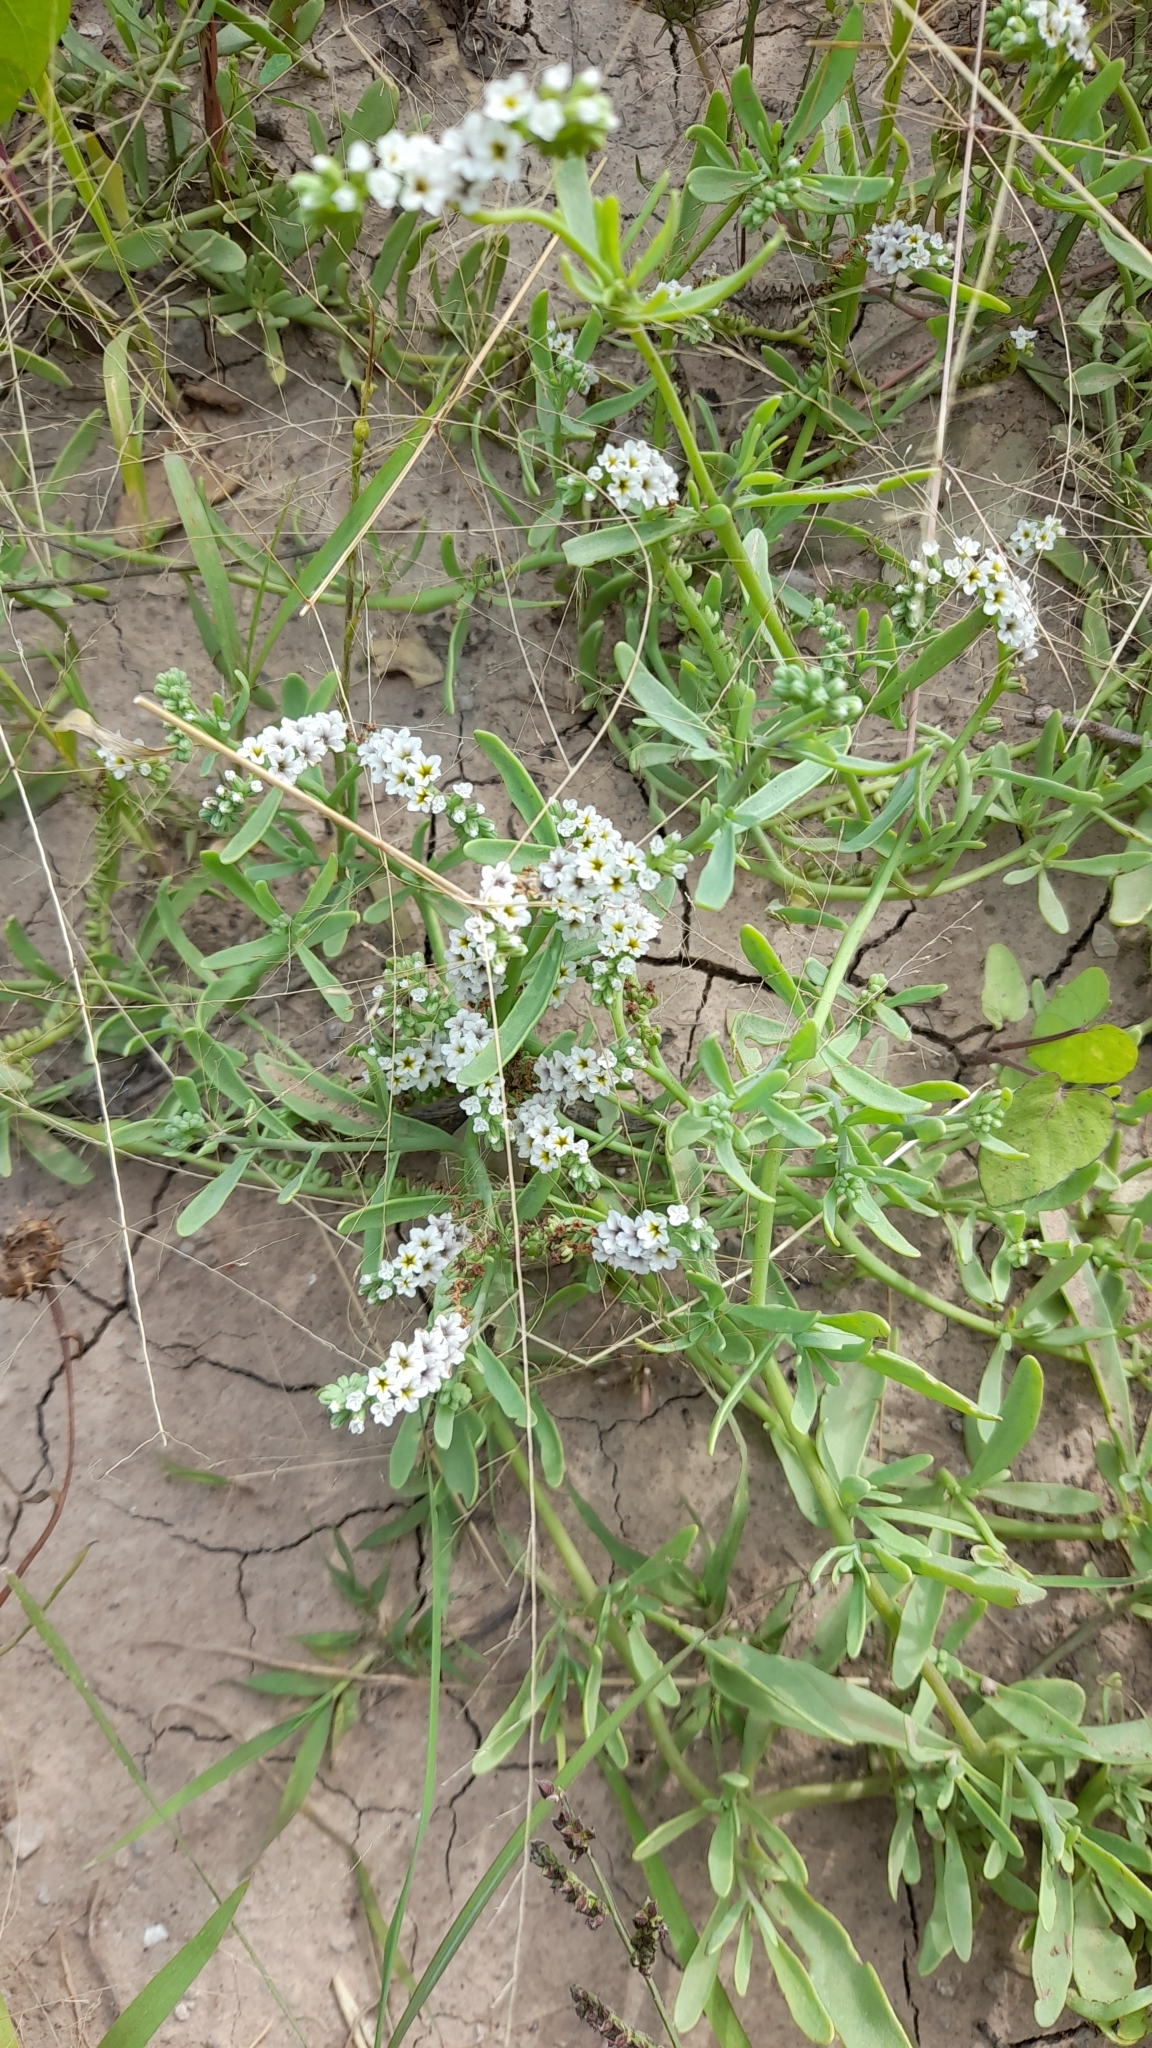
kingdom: Plantae
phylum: Tracheophyta
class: Magnoliopsida
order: Boraginales
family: Heliotropiaceae
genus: Heliotropium
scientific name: Heliotropium curassavicum
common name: Seaside heliotrope
